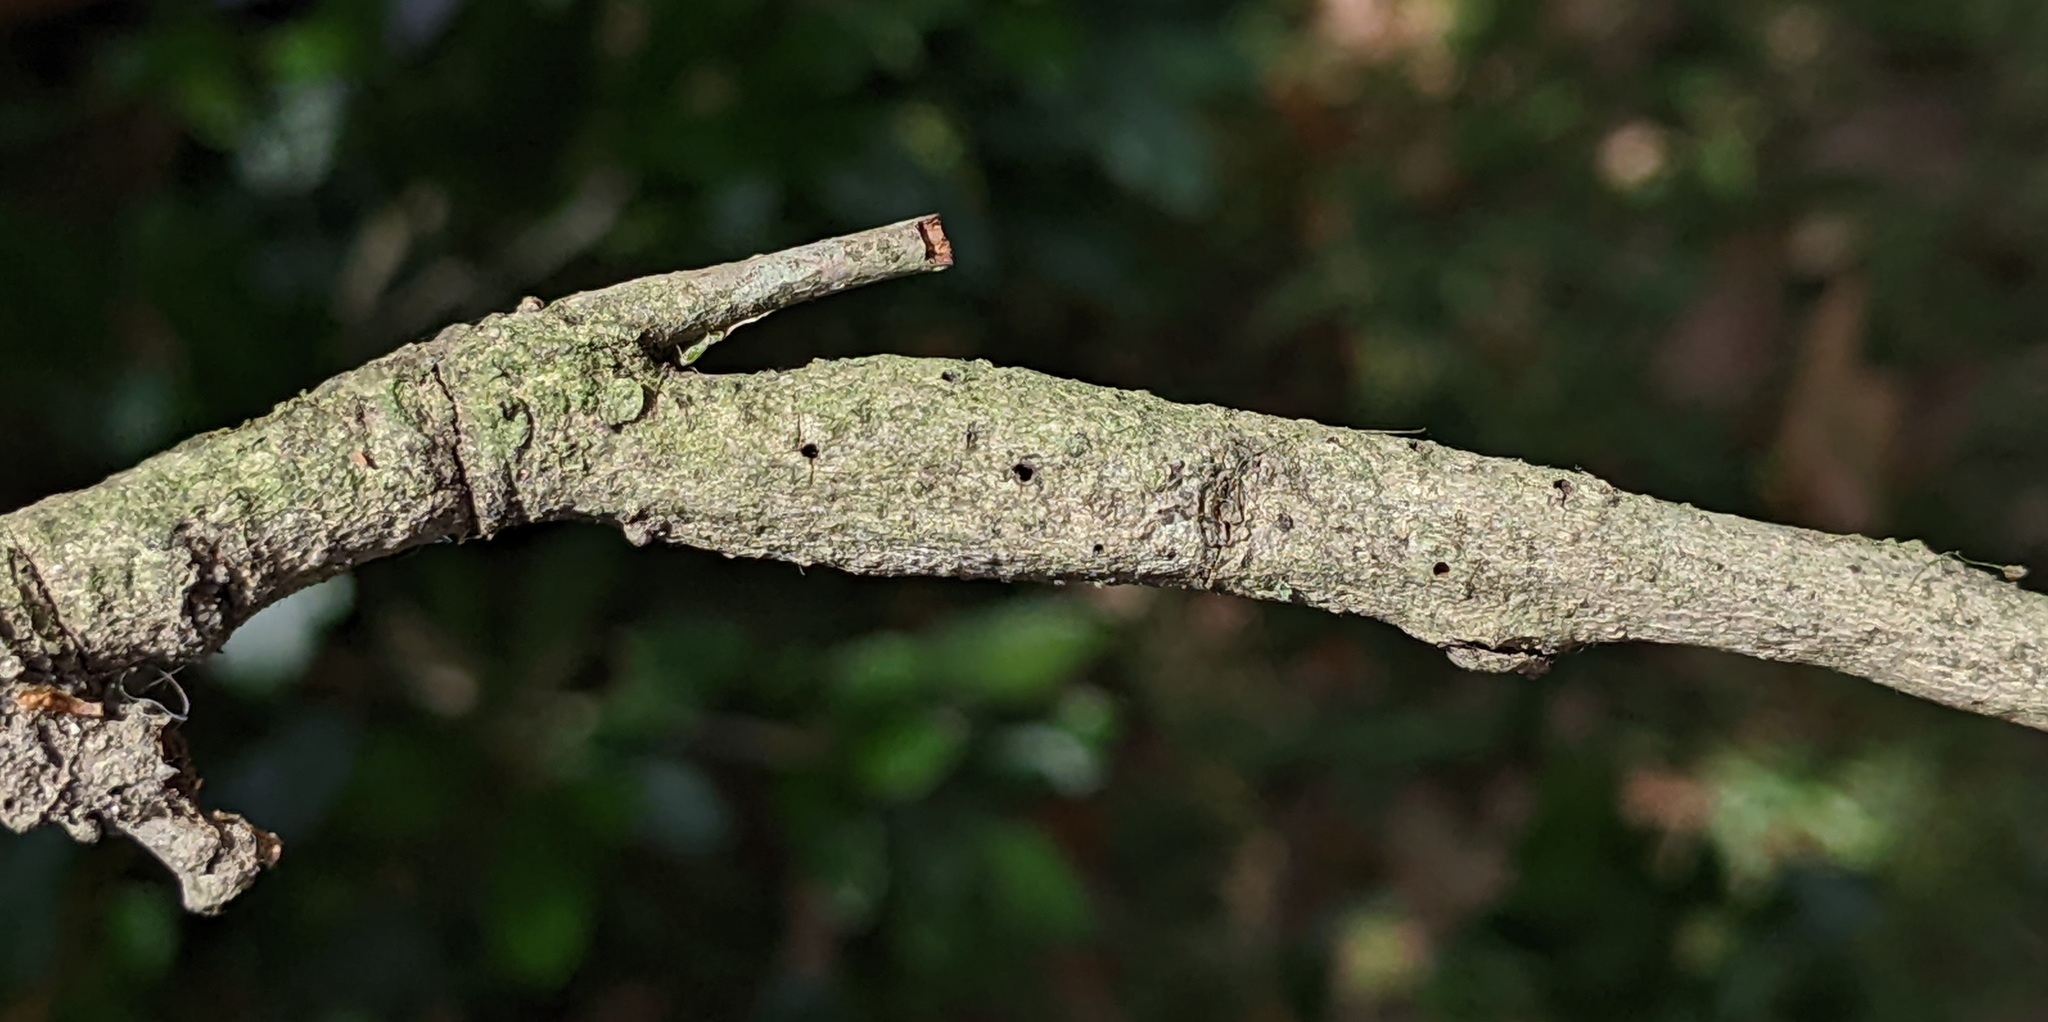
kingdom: Animalia
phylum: Arthropoda
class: Insecta
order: Hymenoptera
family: Cynipidae
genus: Bassettia
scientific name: Bassettia pallida
